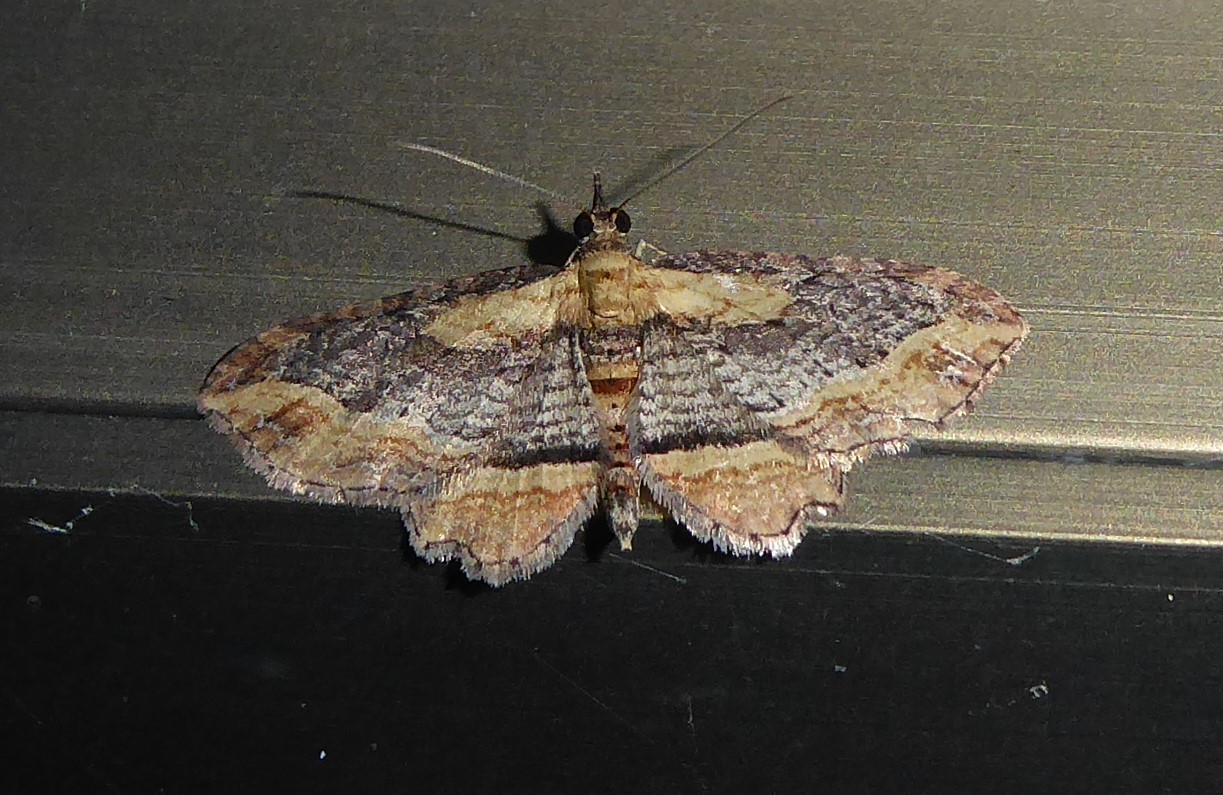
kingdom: Animalia
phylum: Arthropoda
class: Insecta
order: Lepidoptera
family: Geometridae
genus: Chloroclystis
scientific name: Chloroclystis filata
